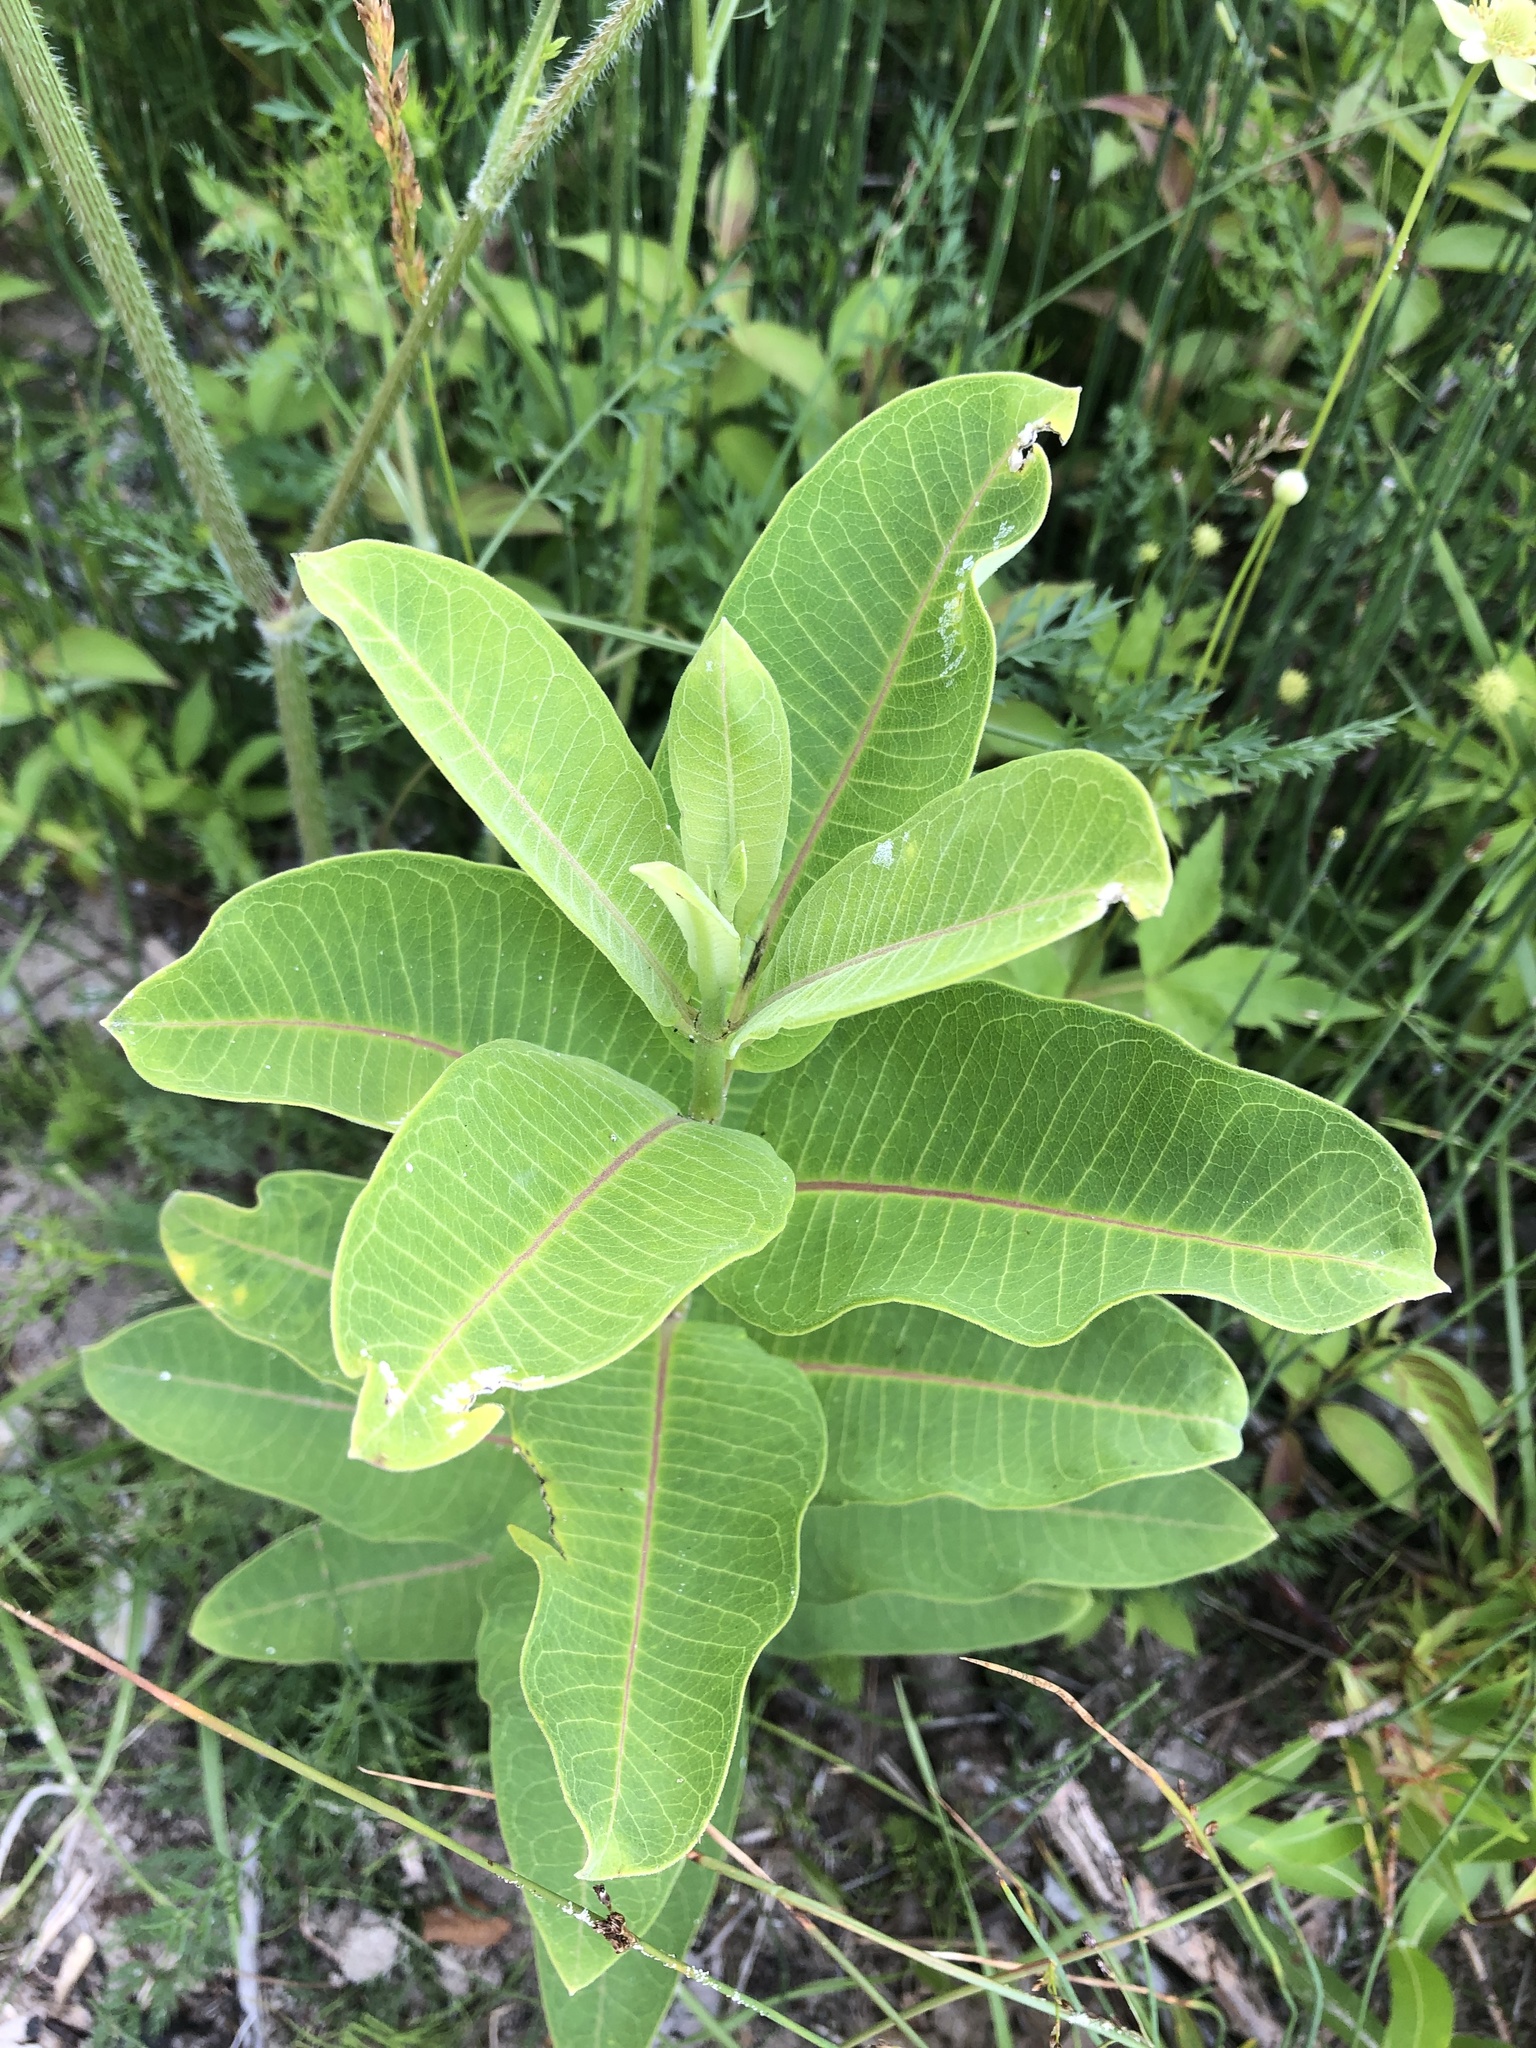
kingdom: Plantae
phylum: Tracheophyta
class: Magnoliopsida
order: Gentianales
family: Apocynaceae
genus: Asclepias
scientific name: Asclepias syriaca
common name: Common milkweed
